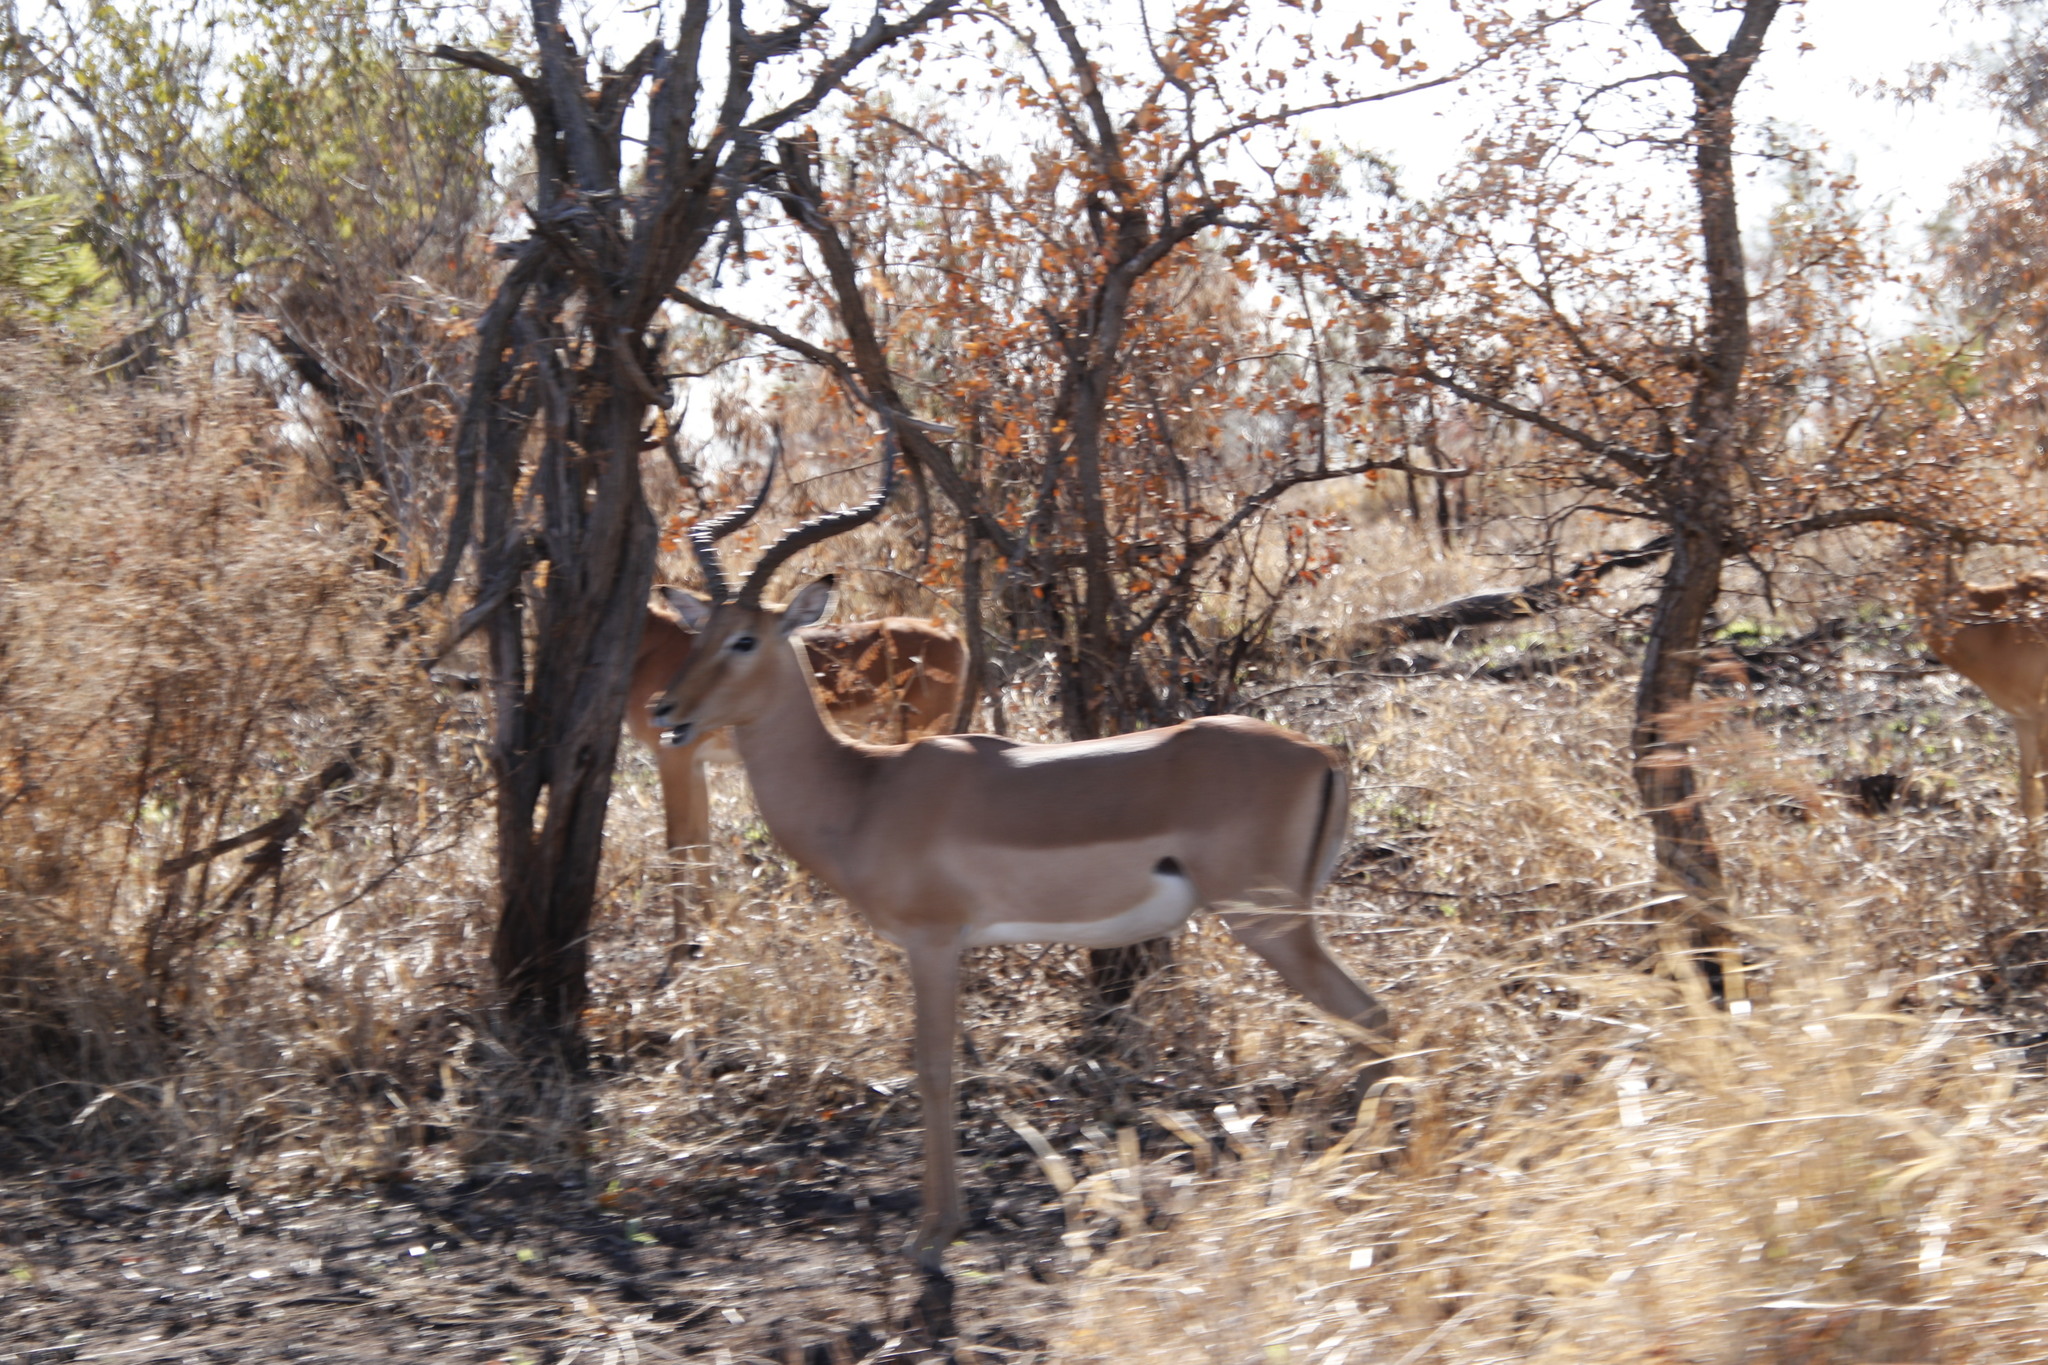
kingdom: Animalia
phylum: Chordata
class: Mammalia
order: Artiodactyla
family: Bovidae
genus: Aepyceros
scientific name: Aepyceros melampus
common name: Impala
